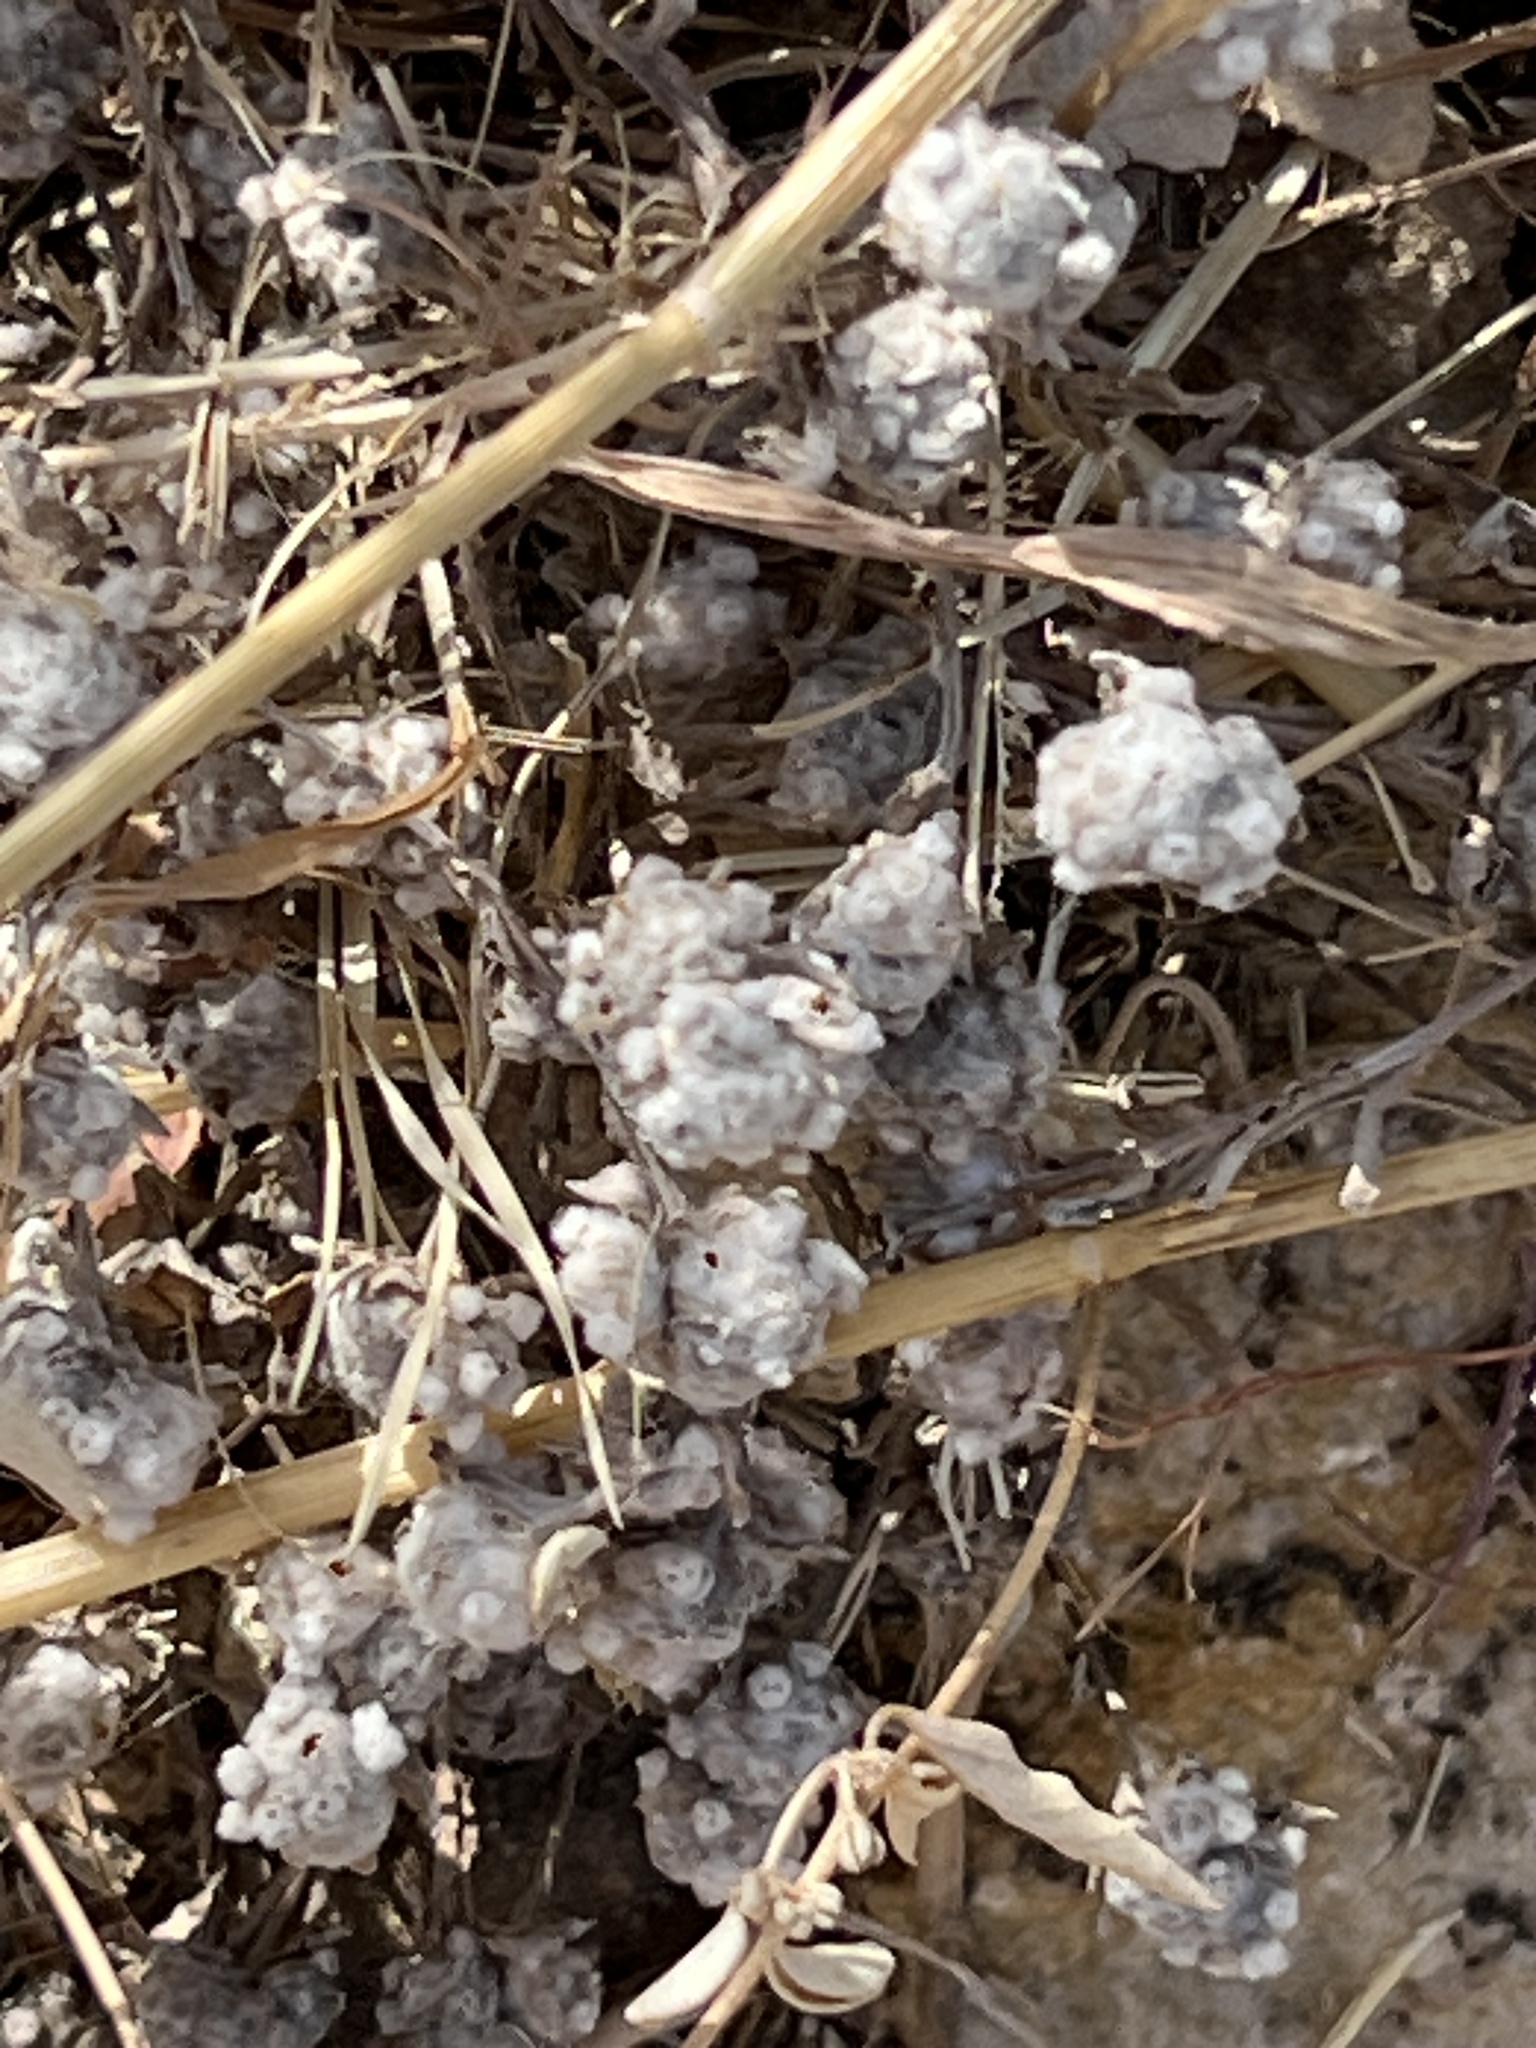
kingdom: Plantae
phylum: Tracheophyta
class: Magnoliopsida
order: Asterales
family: Asteraceae
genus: Diaperia
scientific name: Diaperia verna
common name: Many-stem rabbit-tobacco
